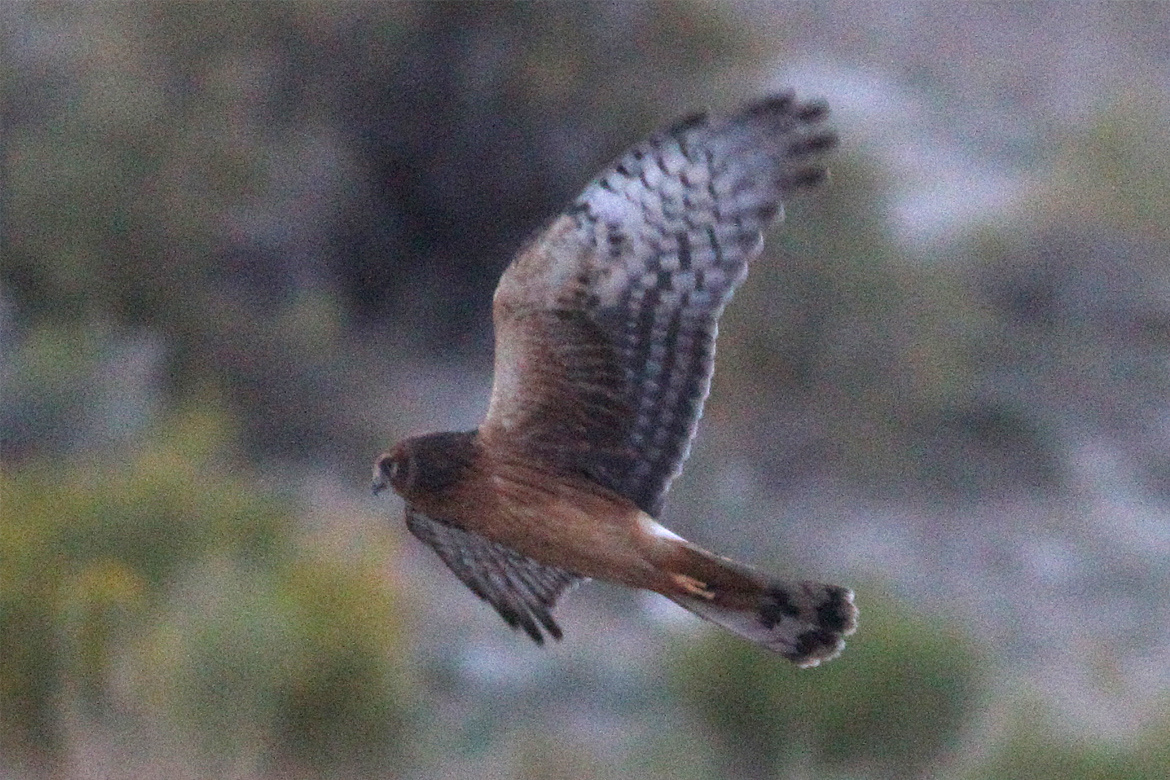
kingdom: Animalia
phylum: Chordata
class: Aves
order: Accipitriformes
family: Accipitridae
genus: Circus
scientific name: Circus cyaneus
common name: Hen harrier
